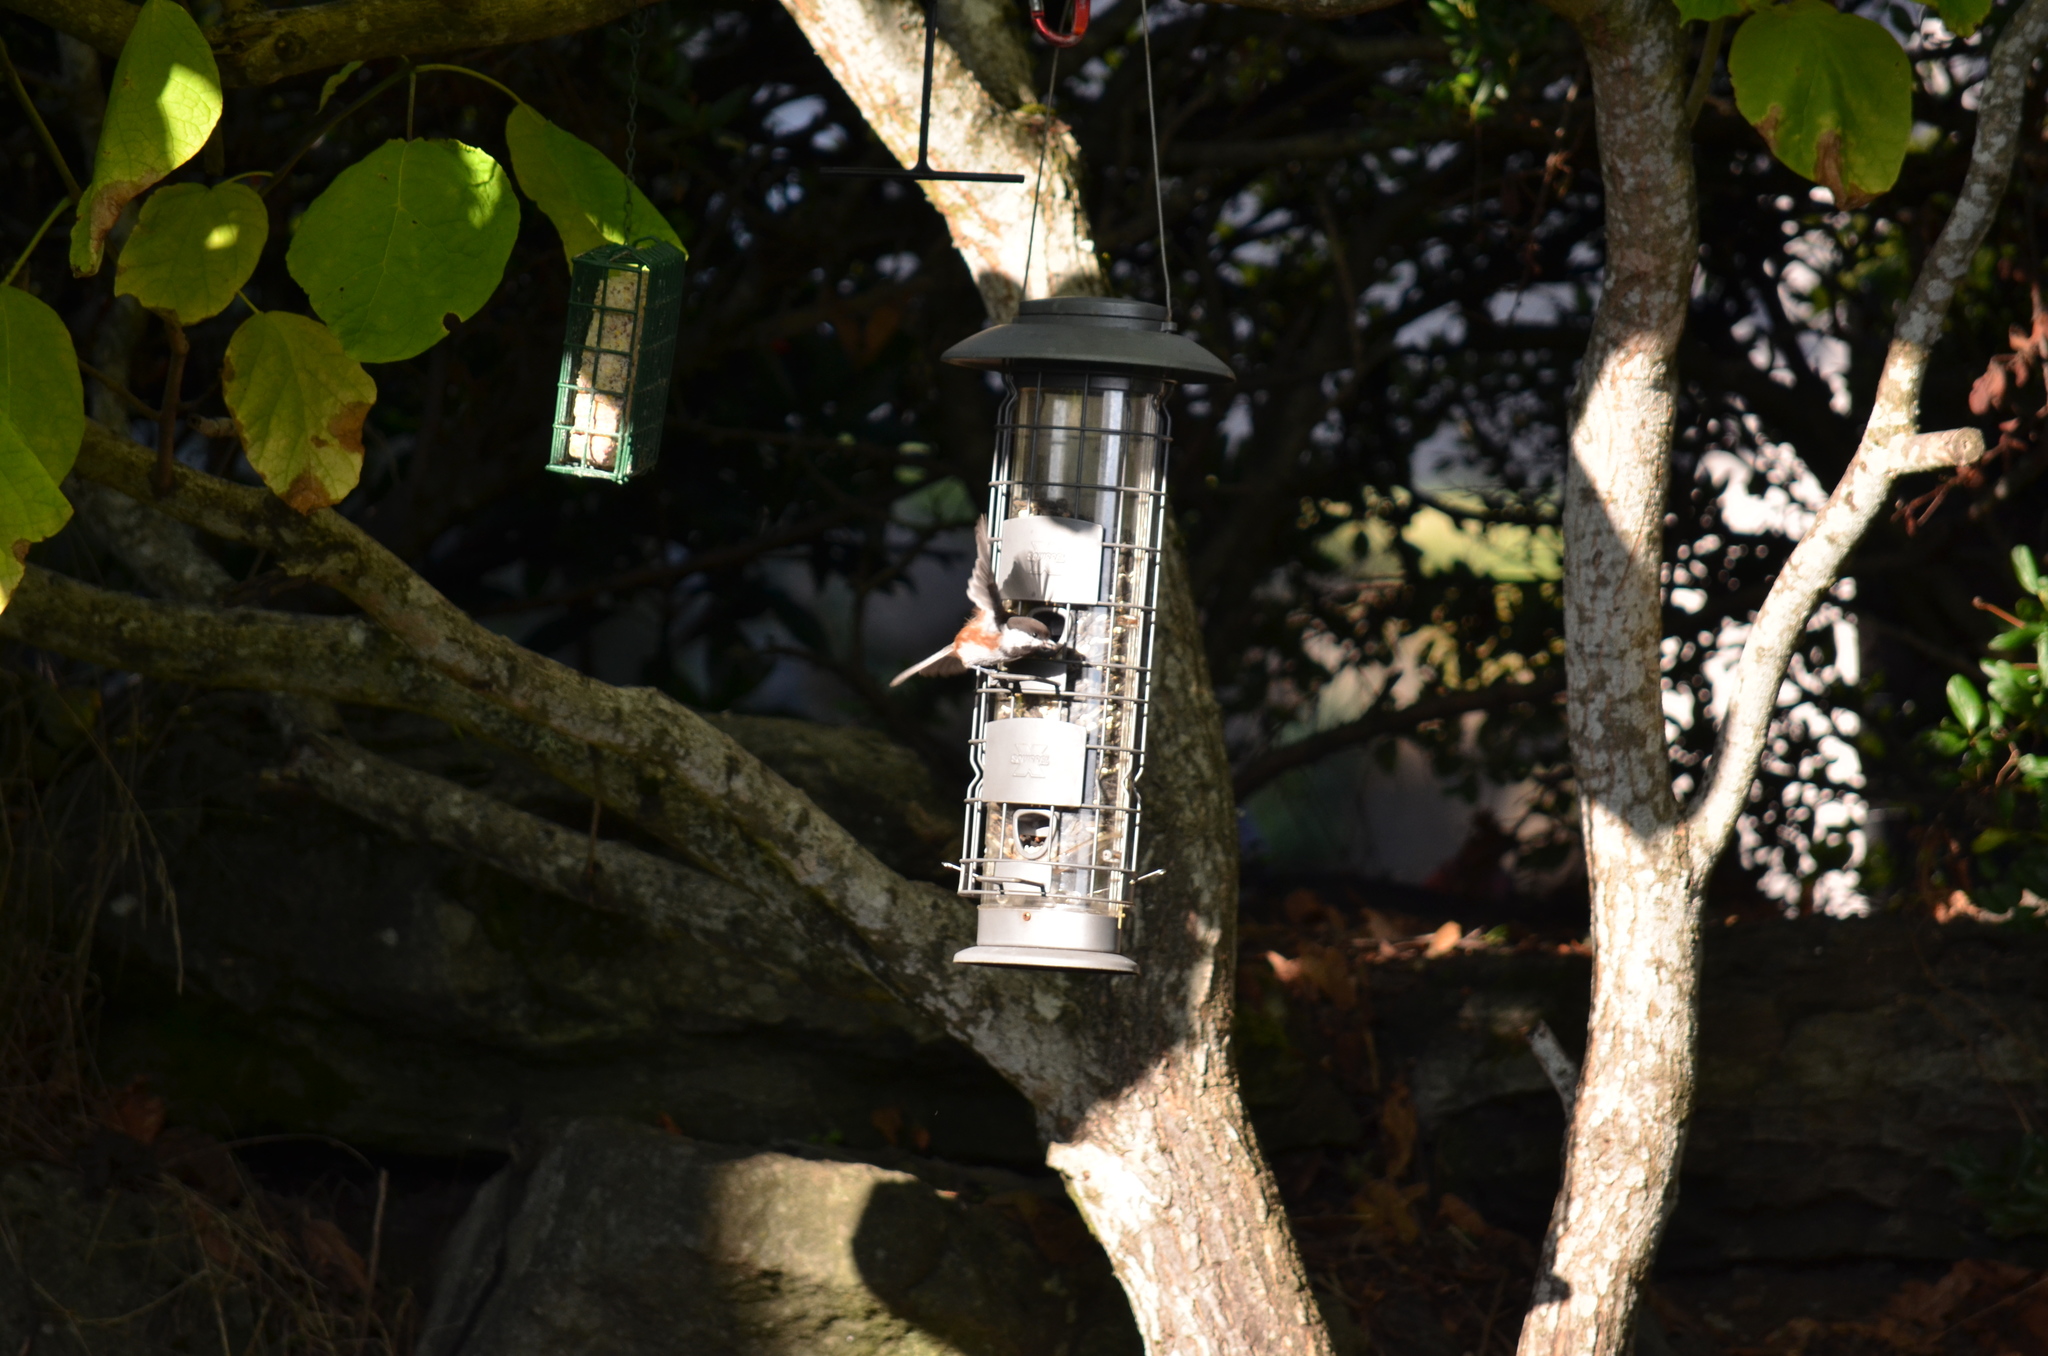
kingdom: Animalia
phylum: Chordata
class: Aves
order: Passeriformes
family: Paridae
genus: Poecile
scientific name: Poecile rufescens
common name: Chestnut-backed chickadee
